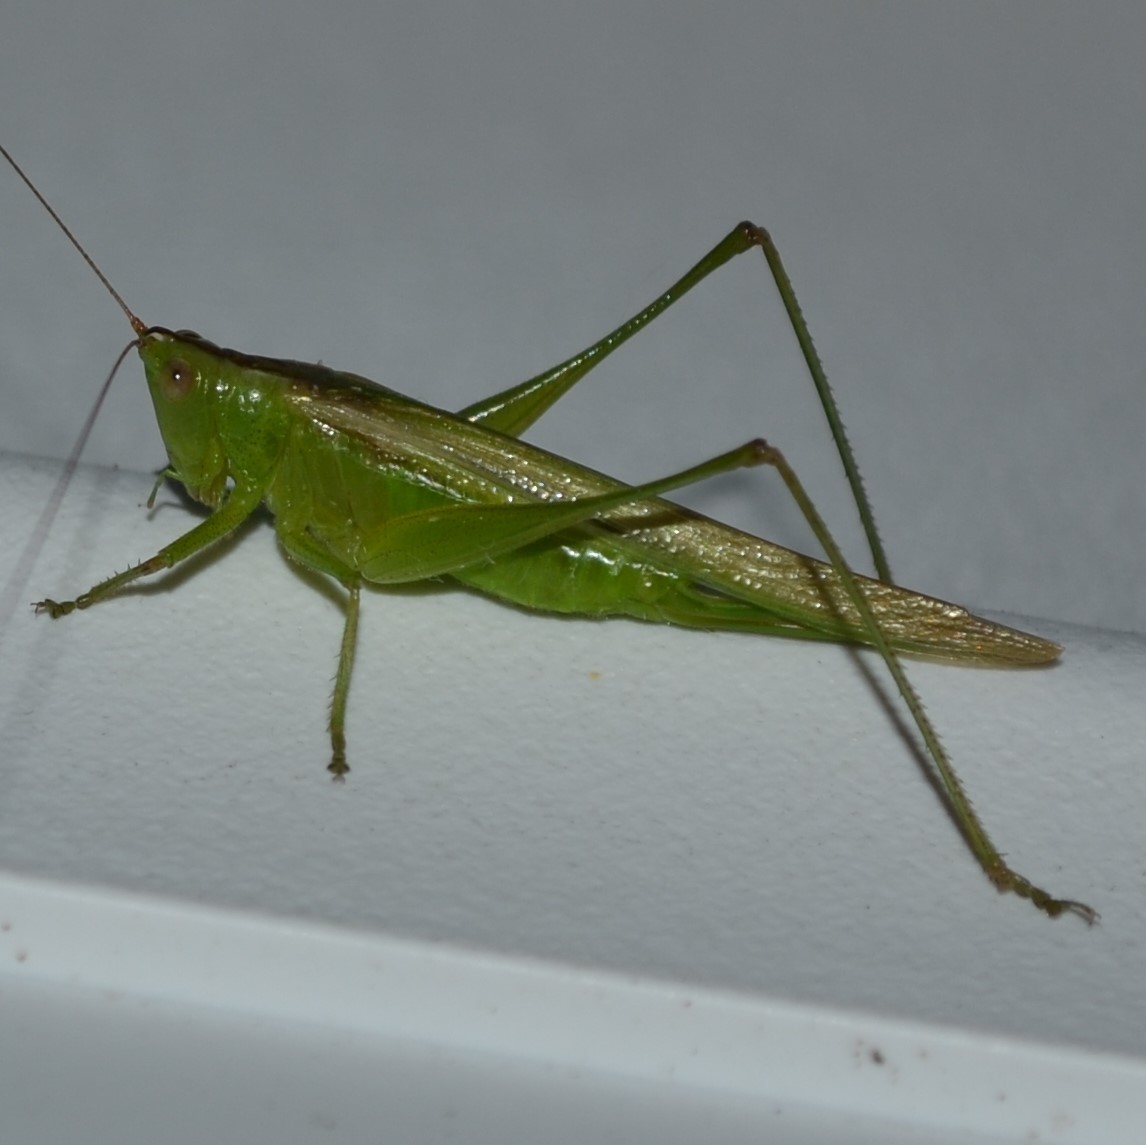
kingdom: Animalia
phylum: Arthropoda
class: Insecta
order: Orthoptera
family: Tettigoniidae
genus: Conocephalus
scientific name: Conocephalus fasciatus
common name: Slender meadow katydid
